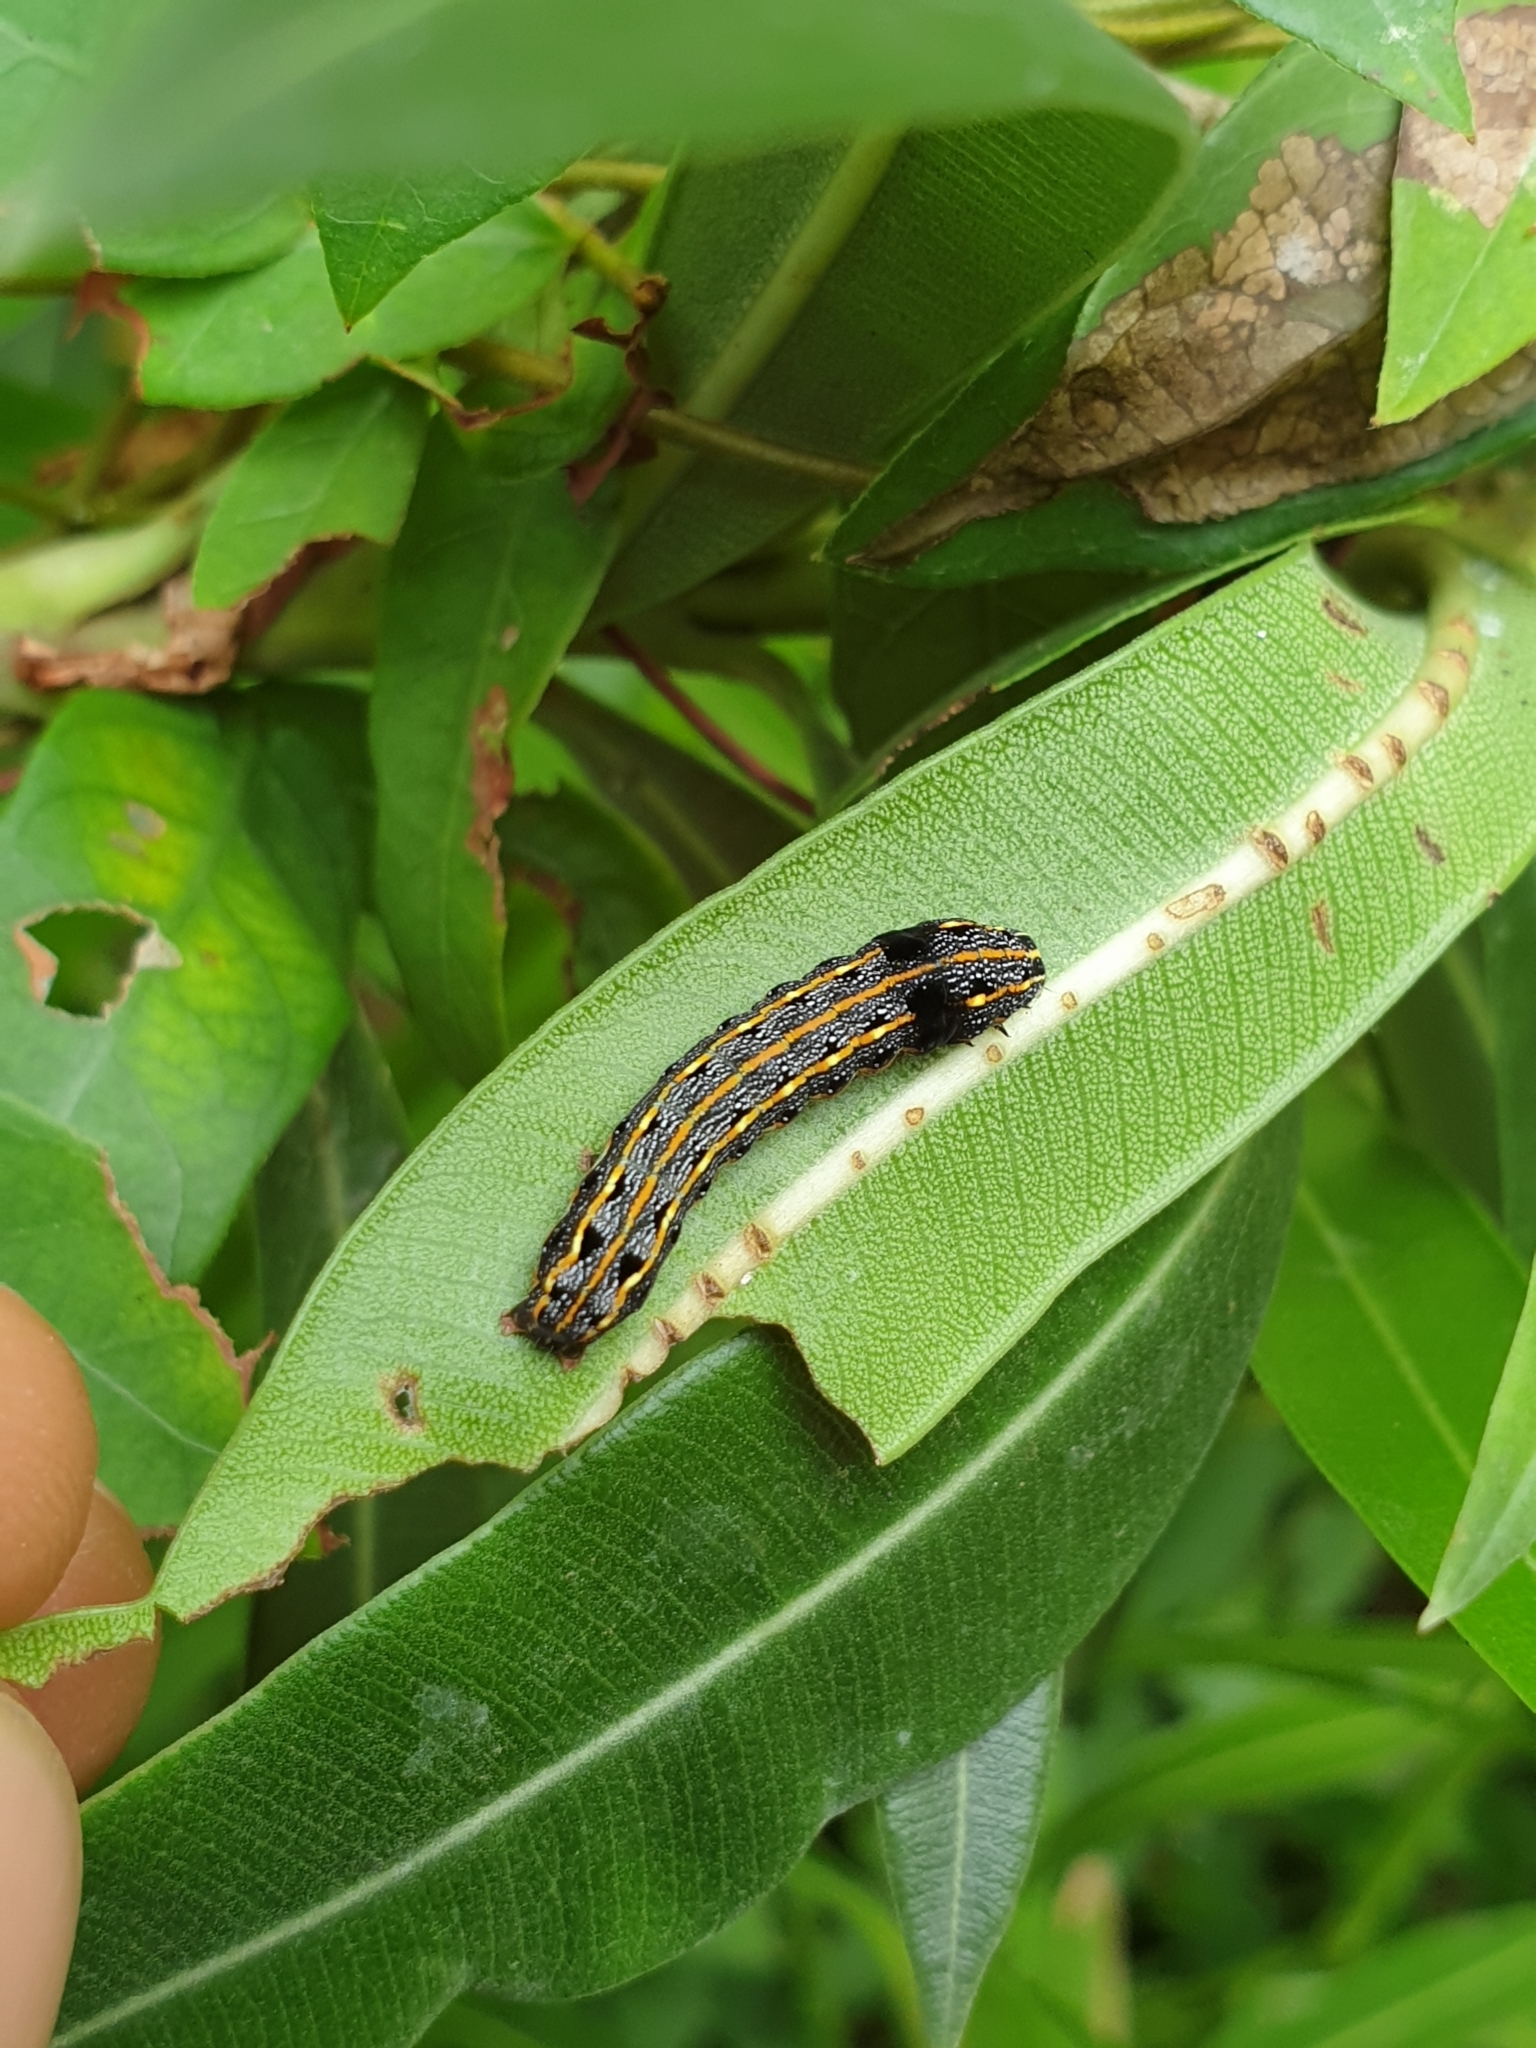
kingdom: Animalia
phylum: Arthropoda
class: Insecta
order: Lepidoptera
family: Noctuidae
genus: Spodoptera
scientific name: Spodoptera litura
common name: Asian cotton leafworm
